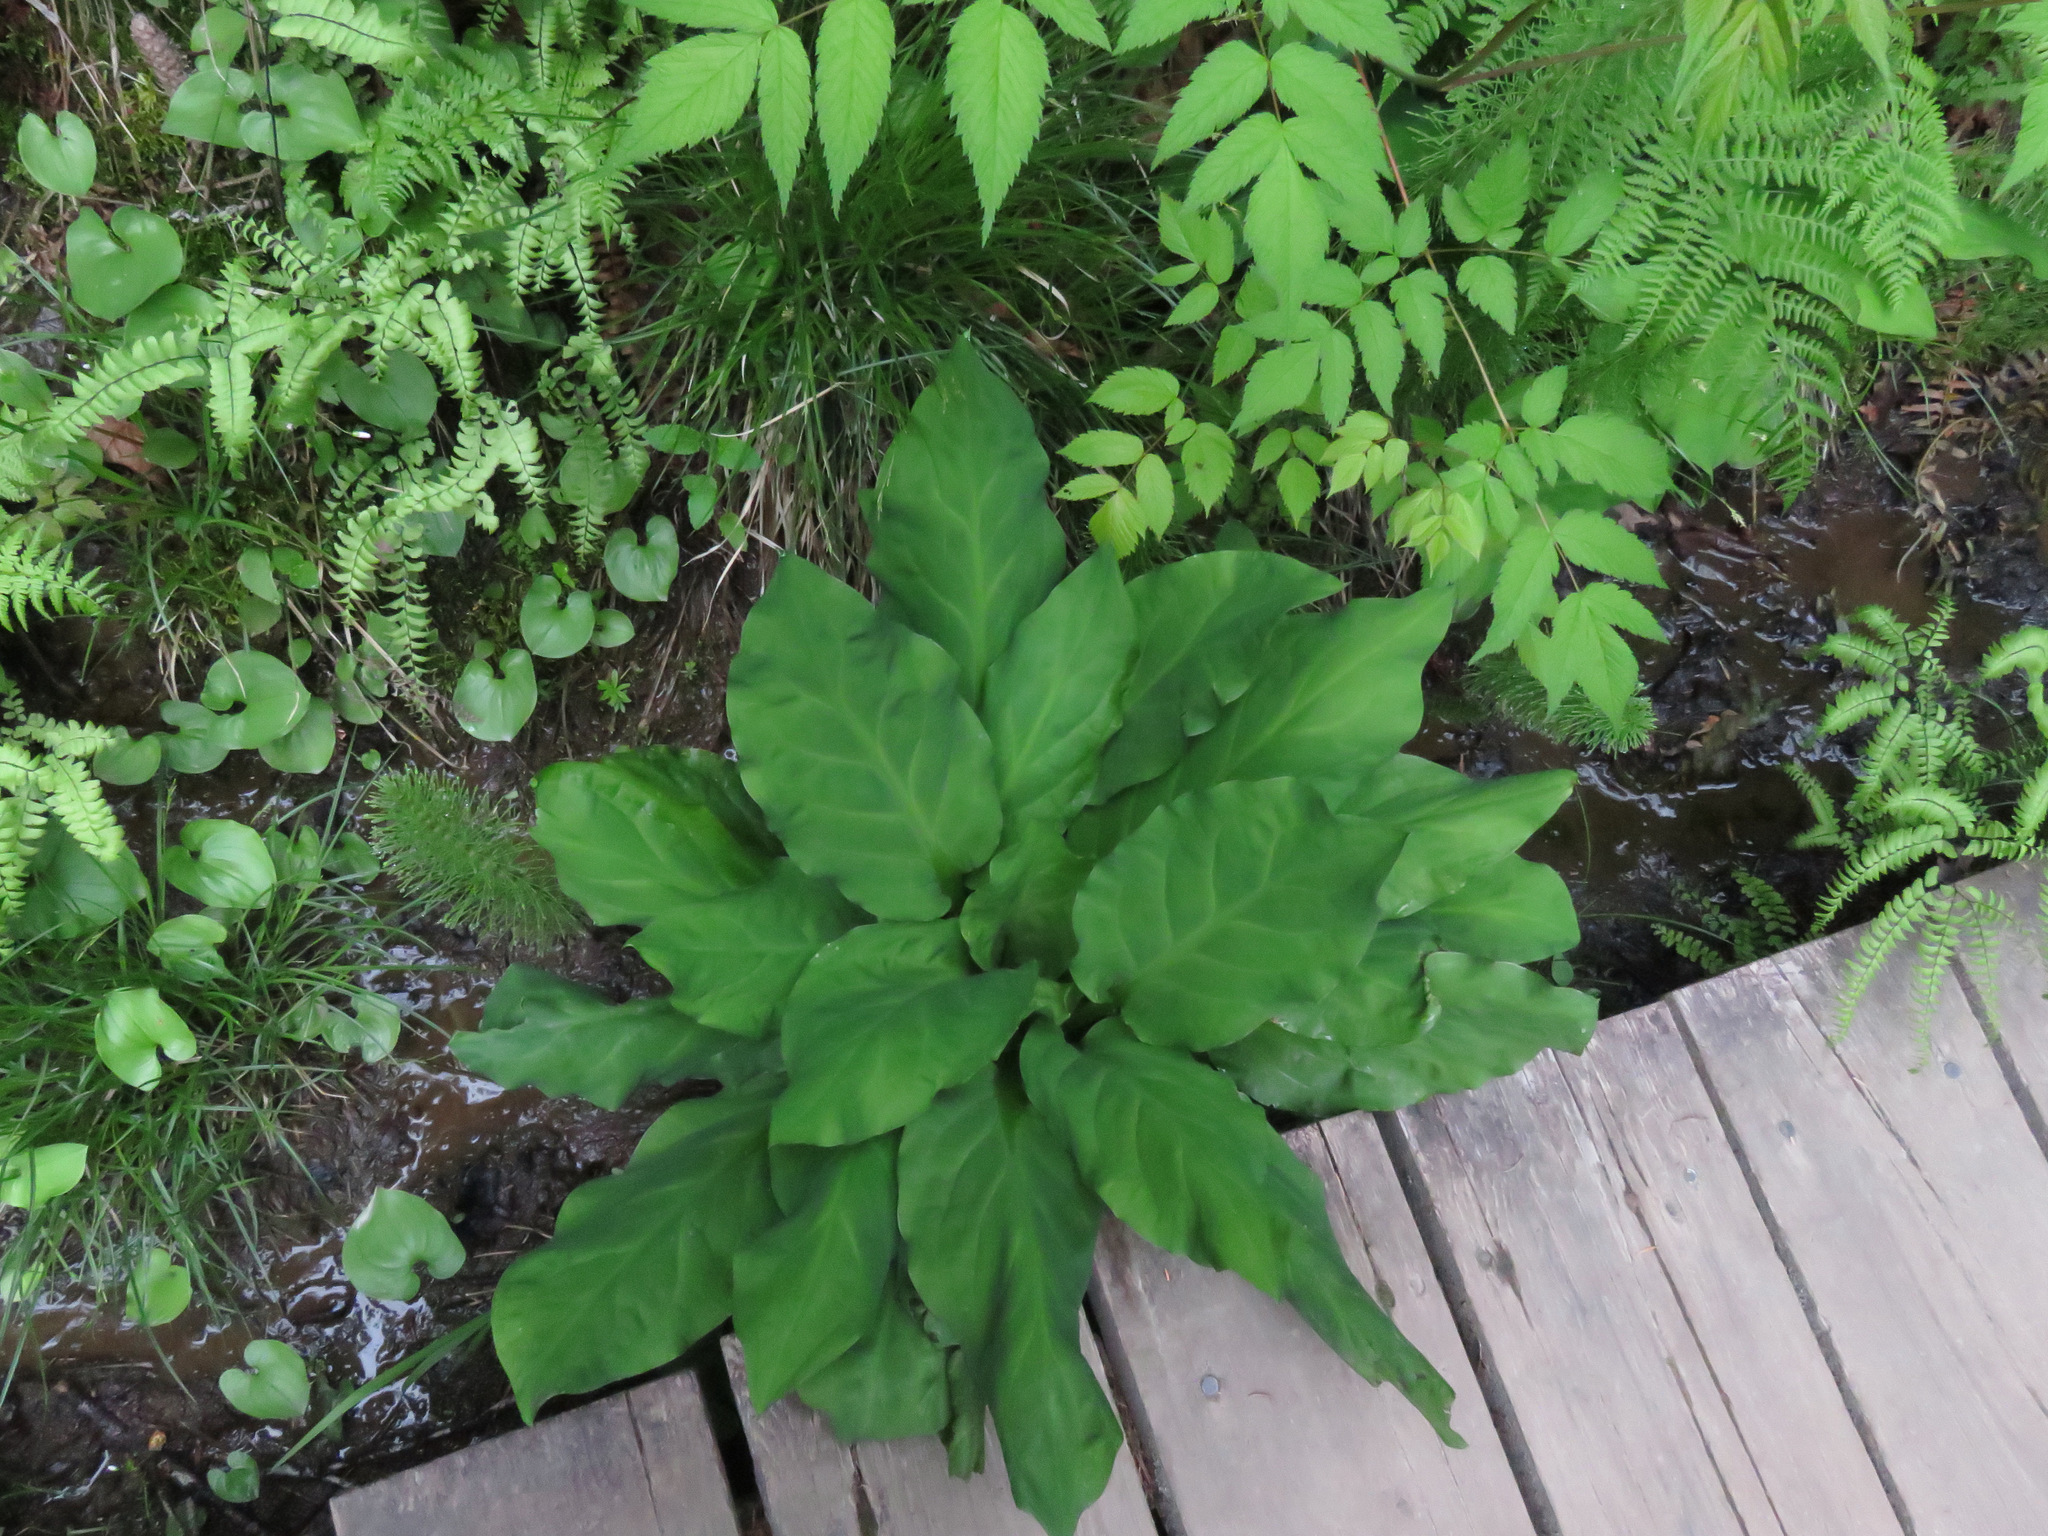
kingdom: Plantae
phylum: Tracheophyta
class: Liliopsida
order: Alismatales
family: Araceae
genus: Lysichiton
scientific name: Lysichiton americanus
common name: American skunk cabbage
